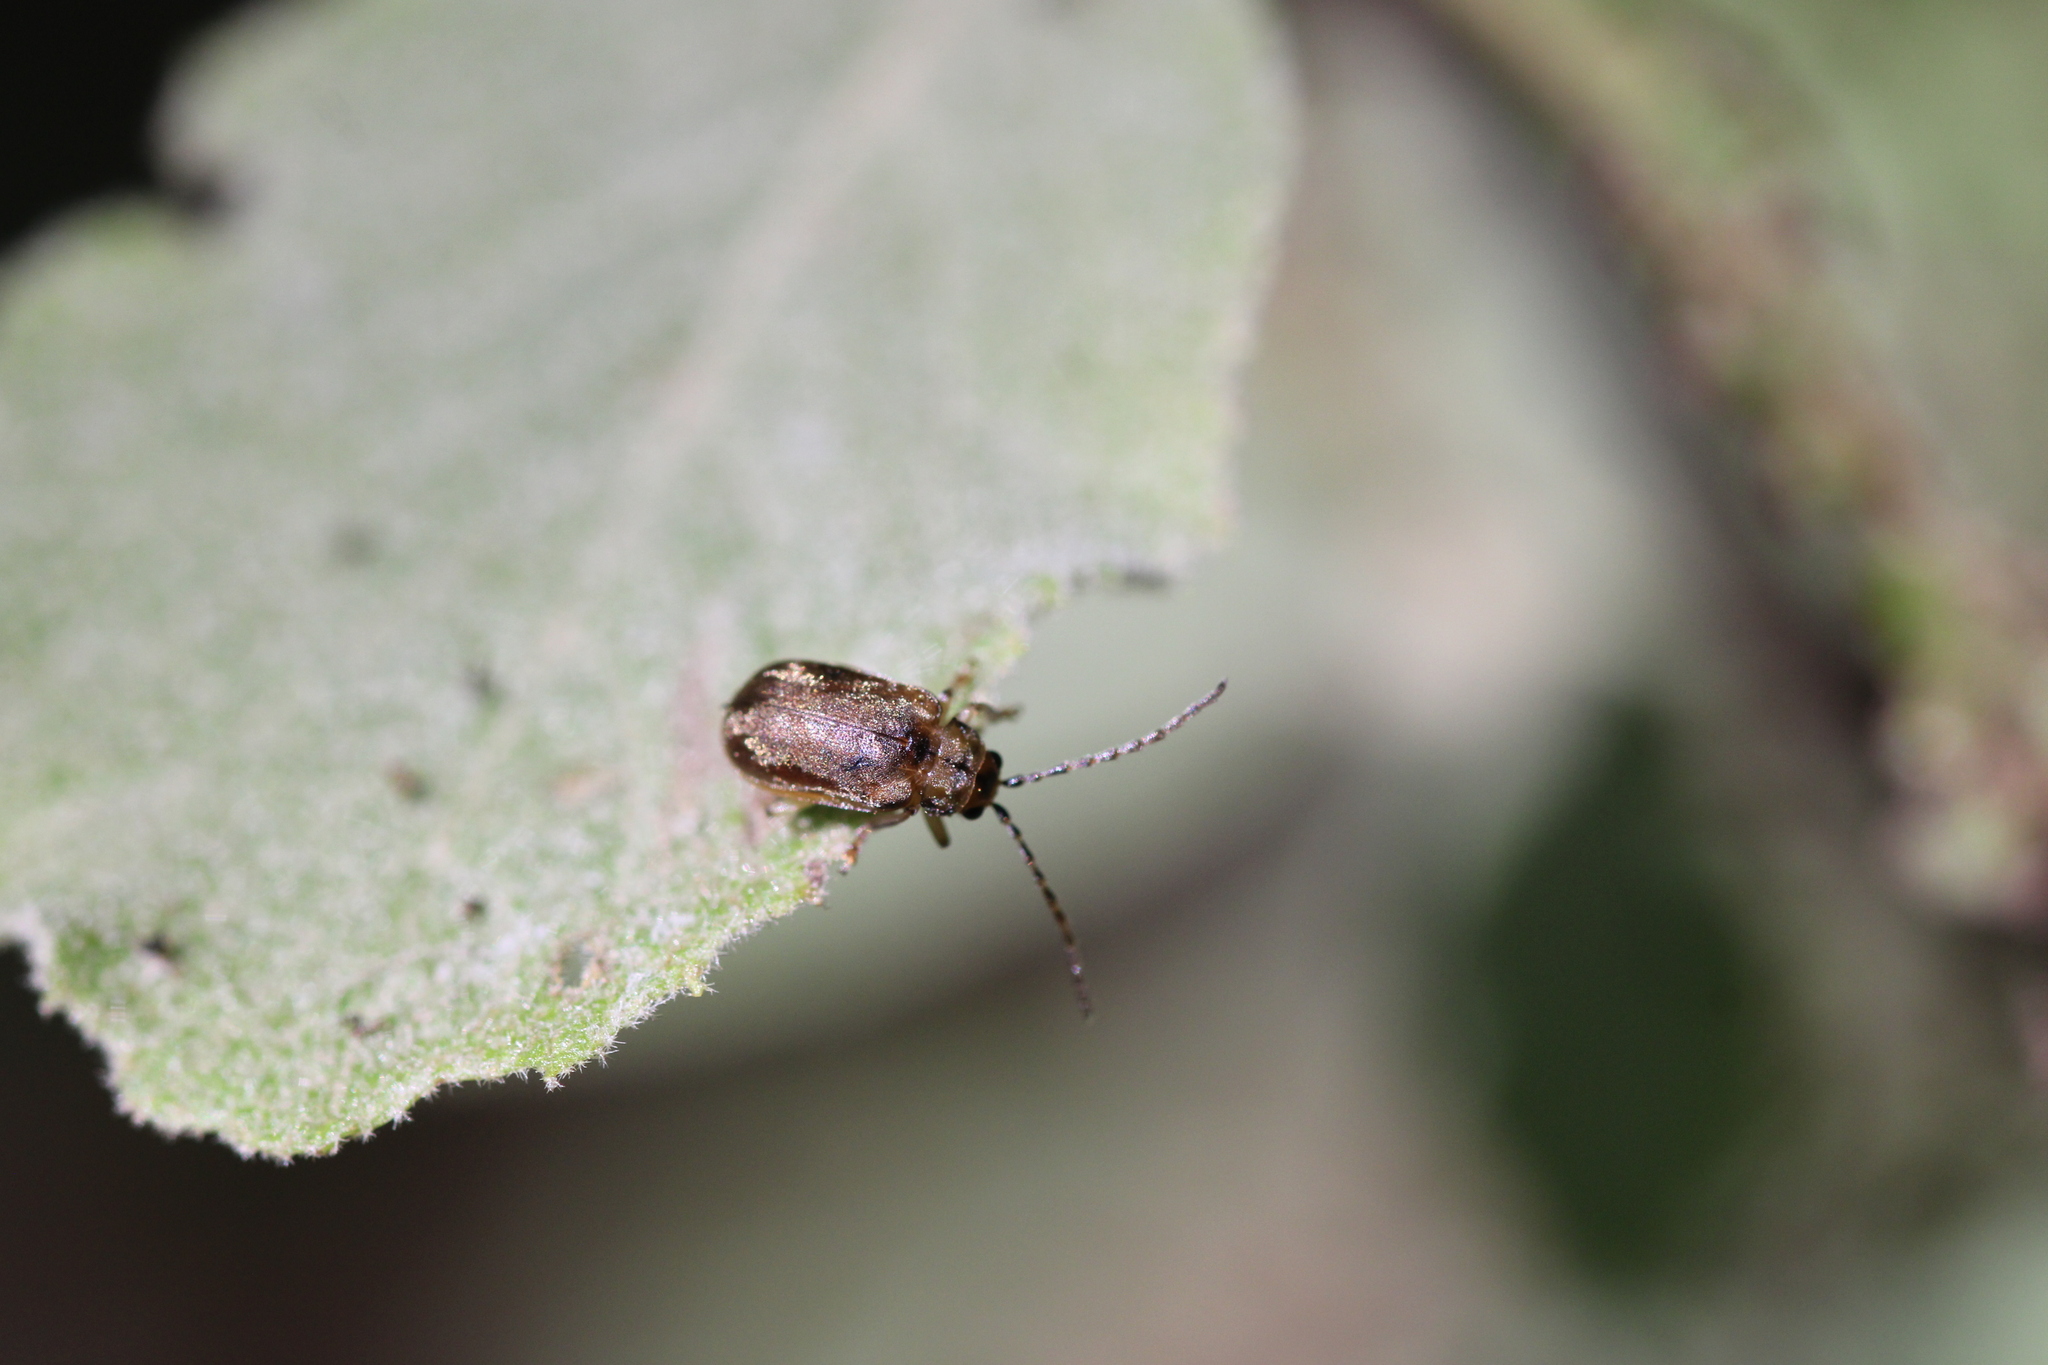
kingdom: Animalia
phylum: Arthropoda
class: Insecta
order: Coleoptera
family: Chrysomelidae
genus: Pyrrhalta
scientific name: Pyrrhalta viburni
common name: Guelder-rose leaf beetle
